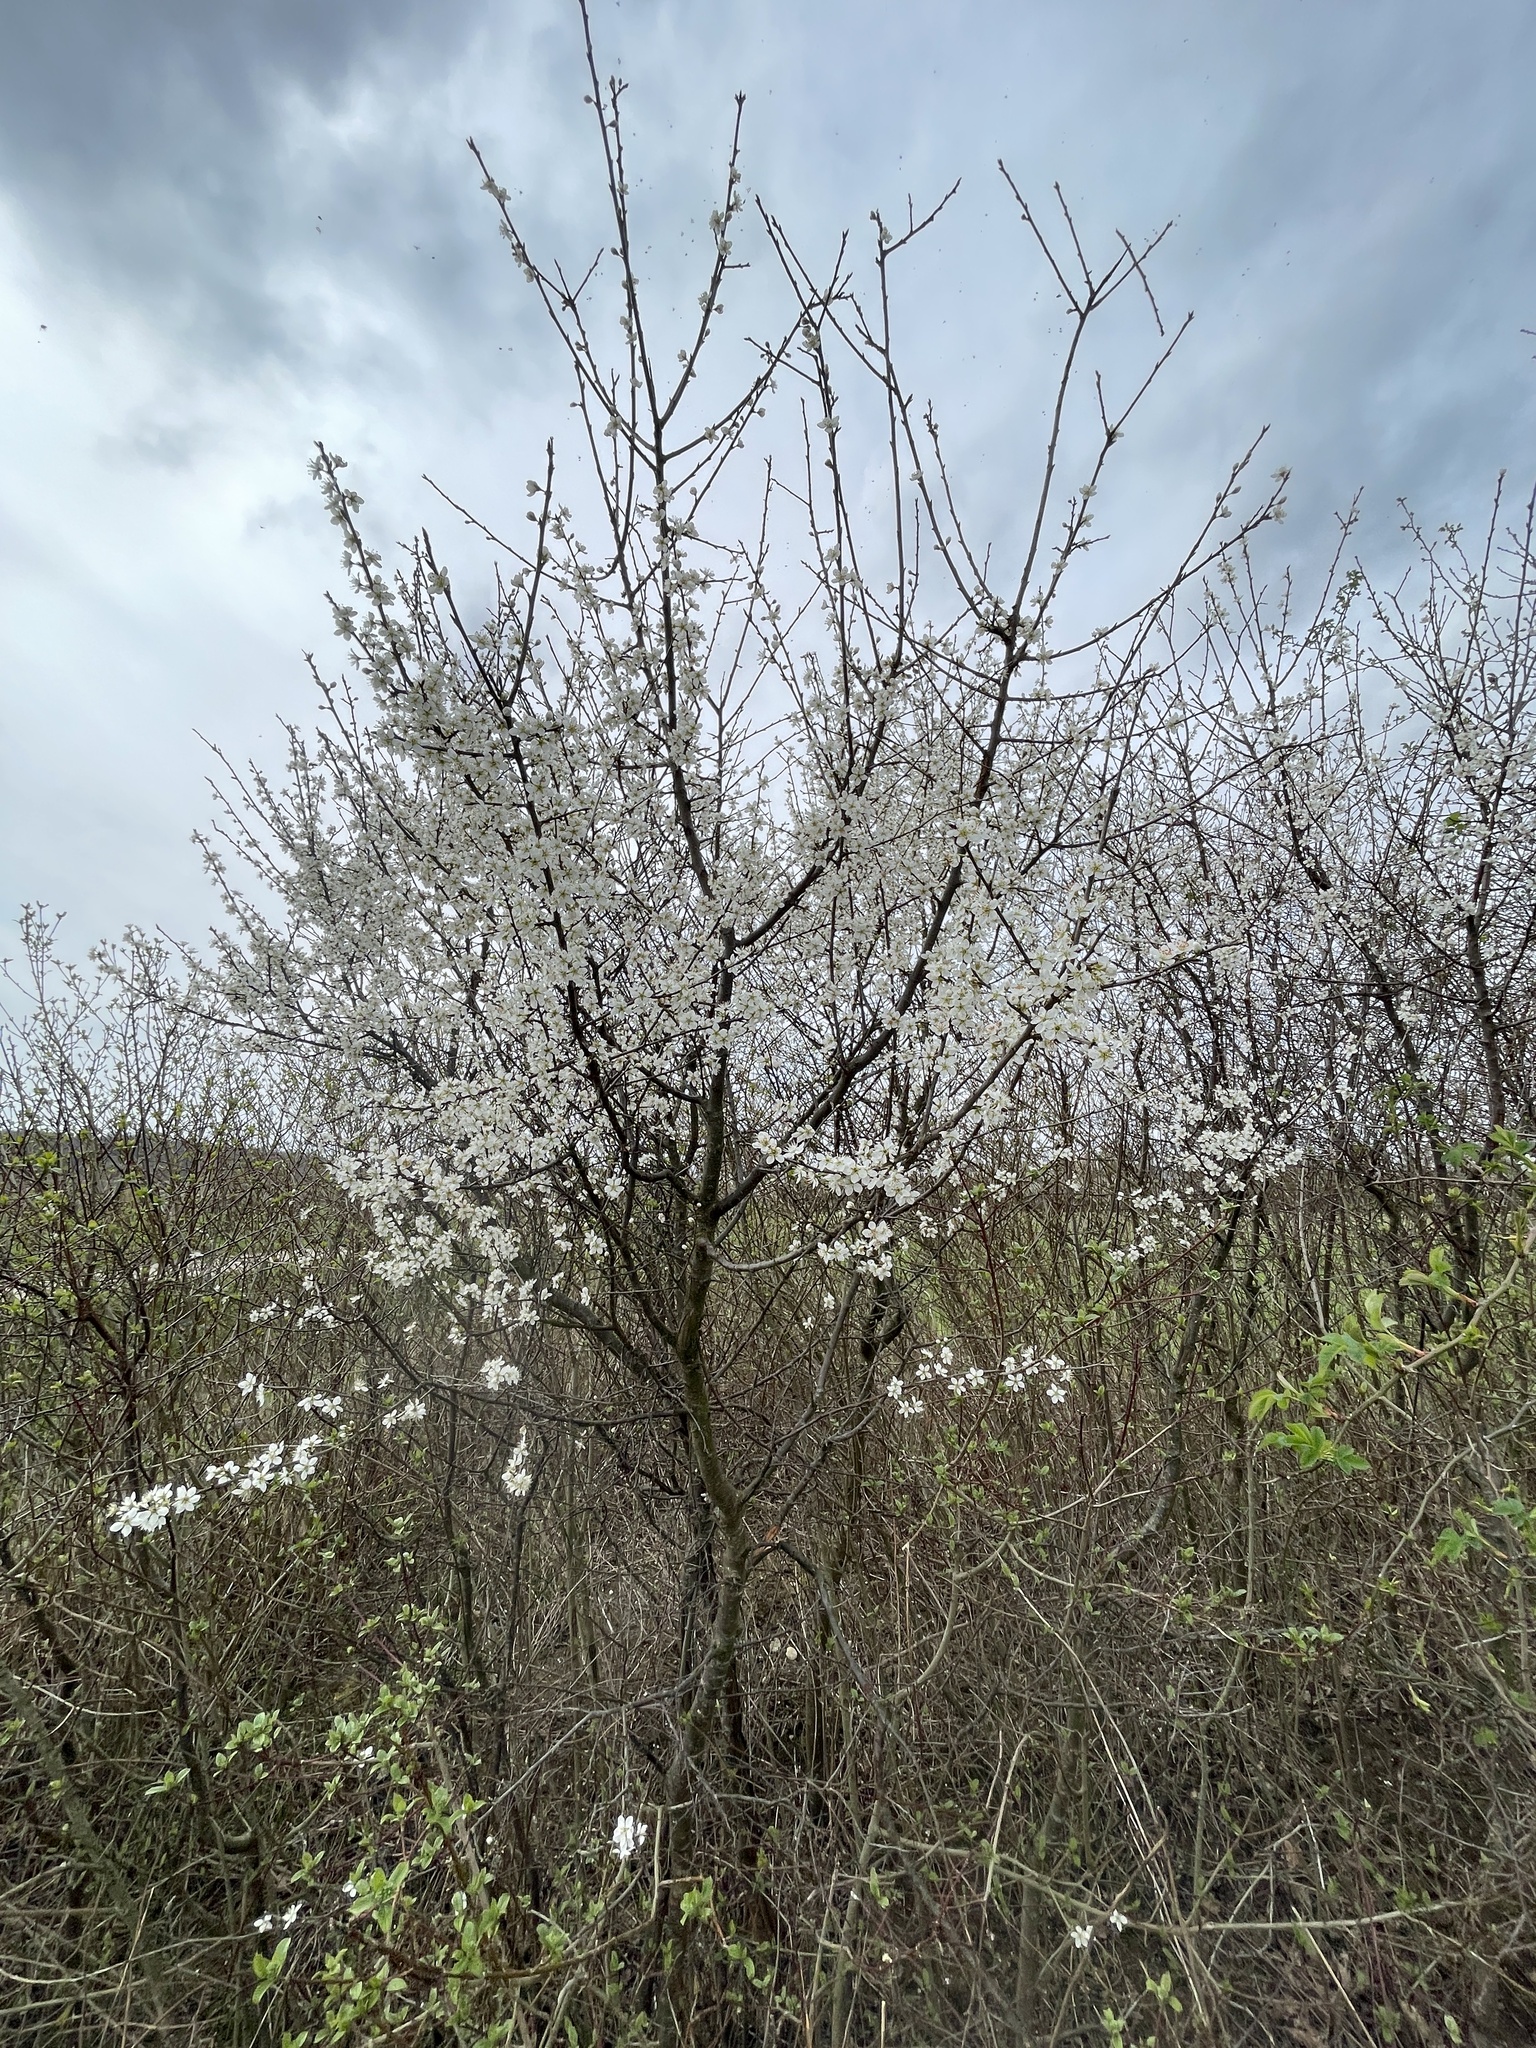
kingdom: Plantae
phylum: Tracheophyta
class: Magnoliopsida
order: Rosales
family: Rosaceae
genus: Prunus
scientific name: Prunus spinosa
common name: Blackthorn
